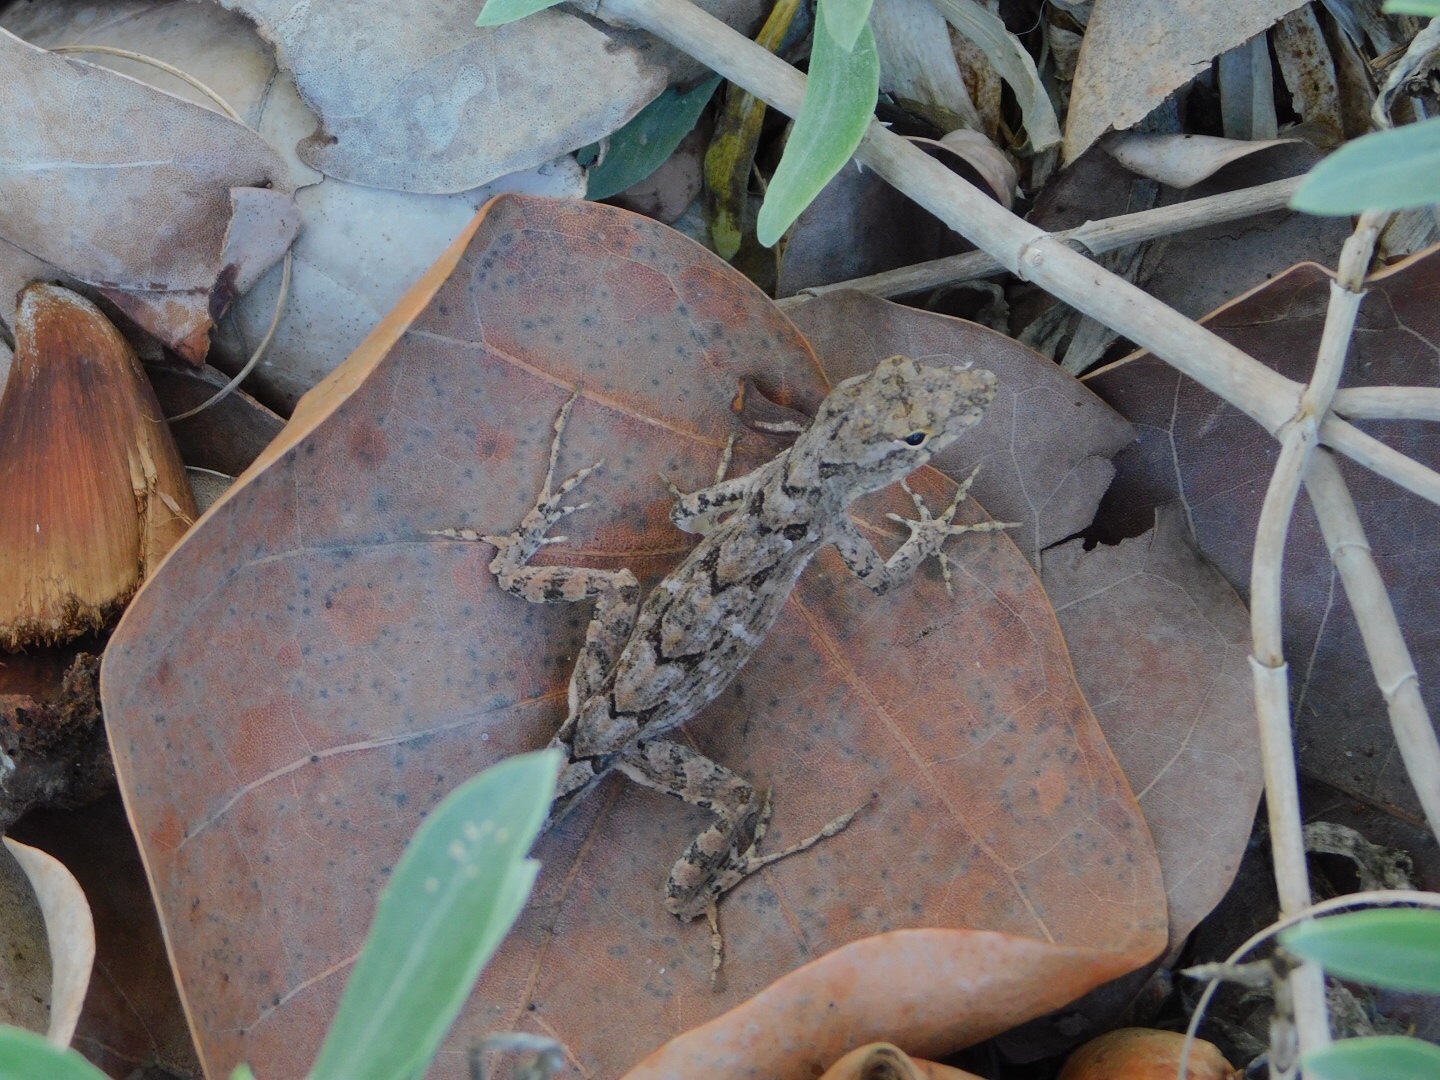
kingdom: Animalia
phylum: Chordata
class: Squamata
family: Dactyloidae
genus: Anolis
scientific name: Anolis sagrei
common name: Brown anole
